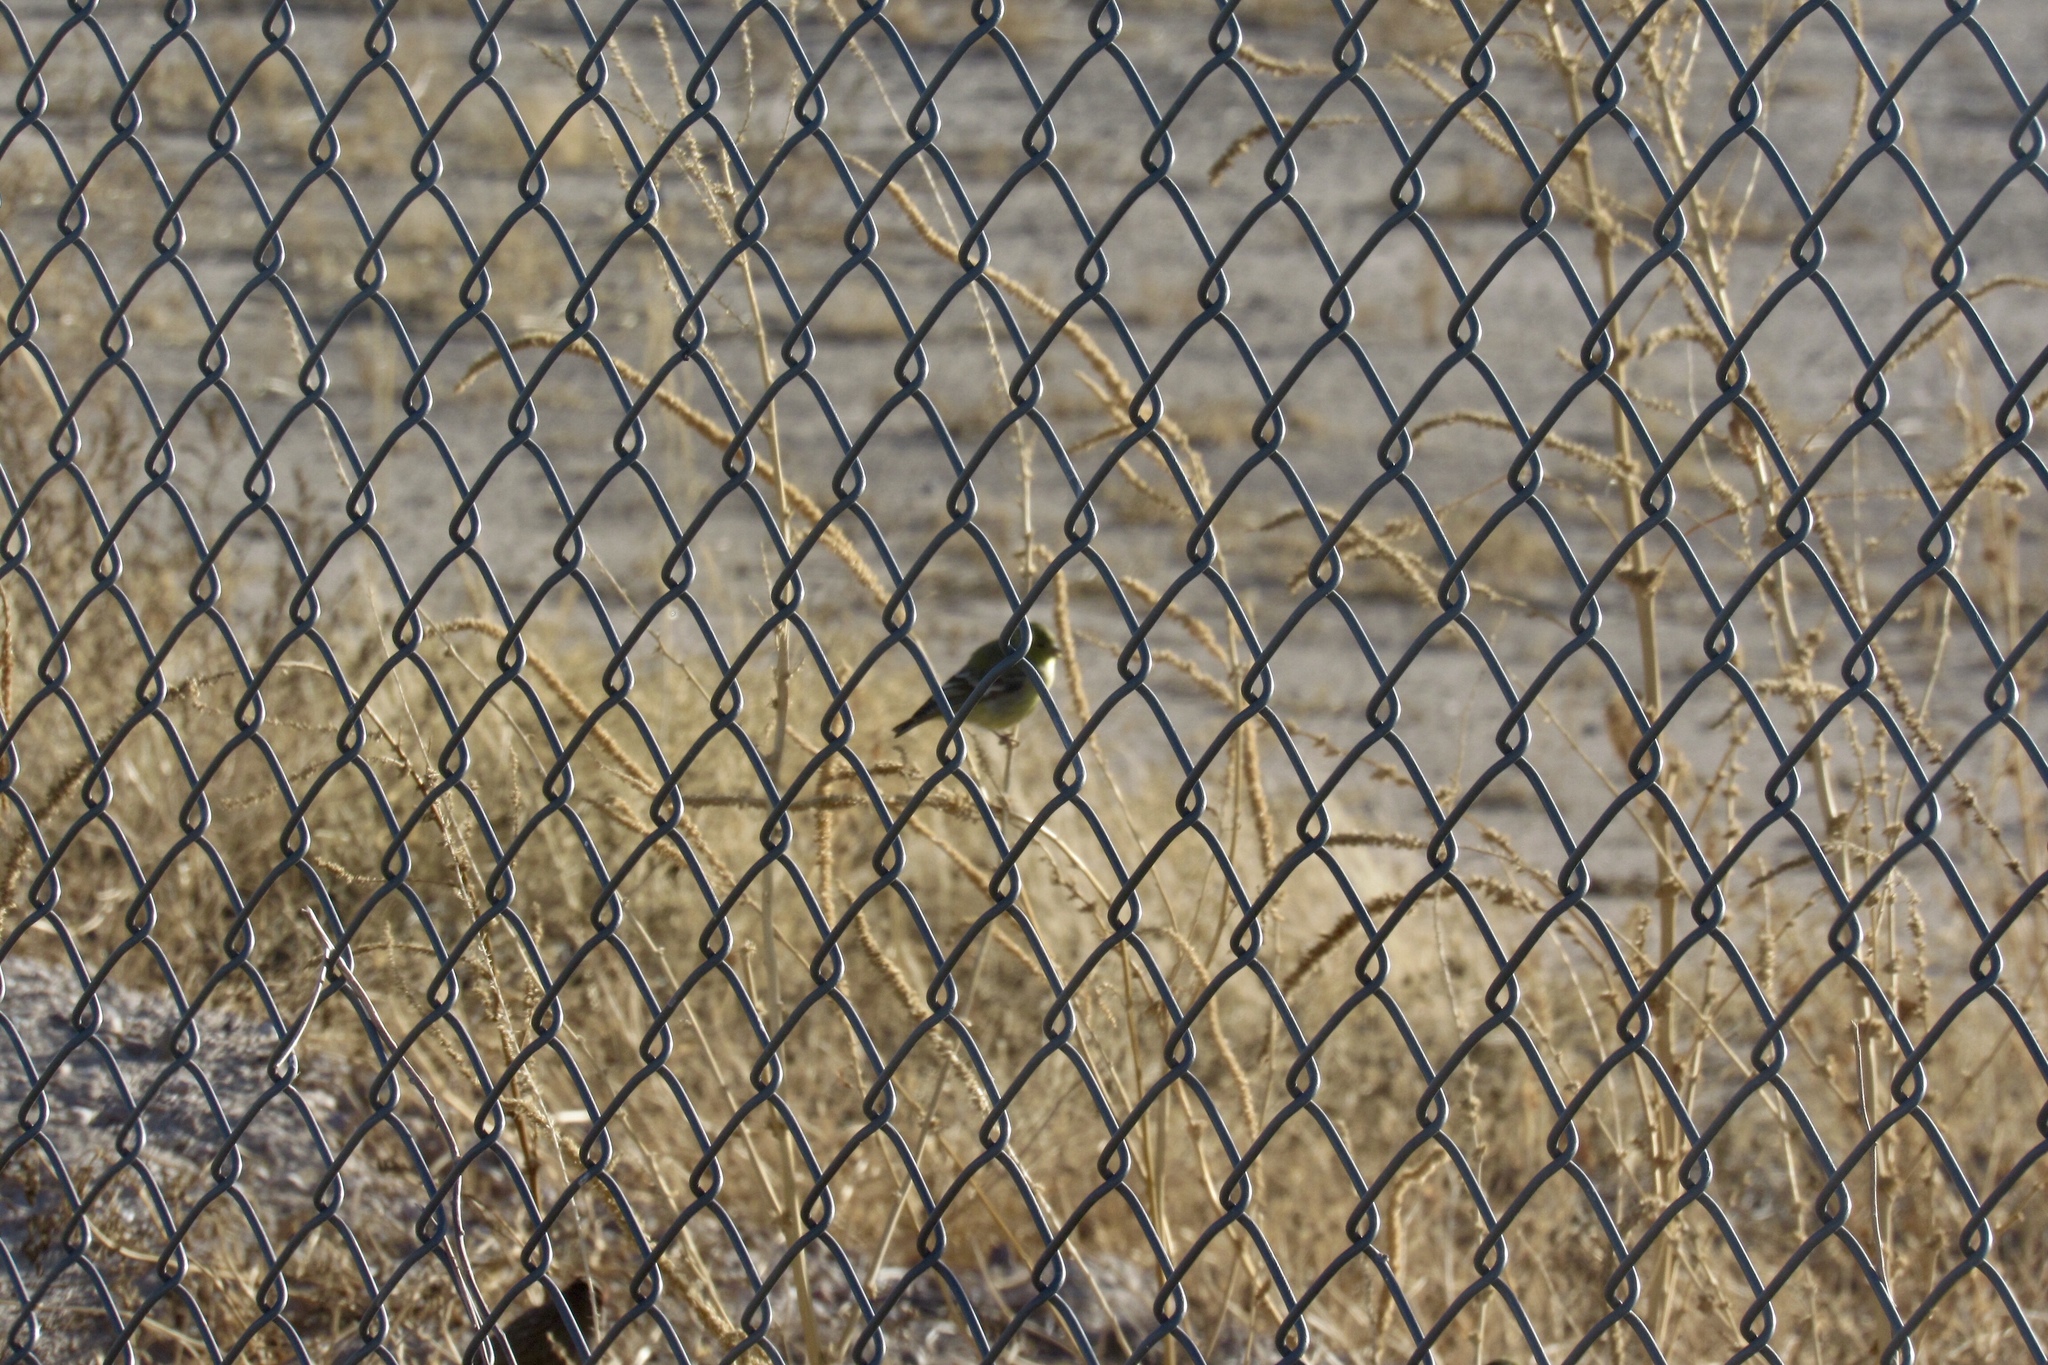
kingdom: Animalia
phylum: Chordata
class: Aves
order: Passeriformes
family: Fringillidae
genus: Spinus
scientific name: Spinus psaltria
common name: Lesser goldfinch
